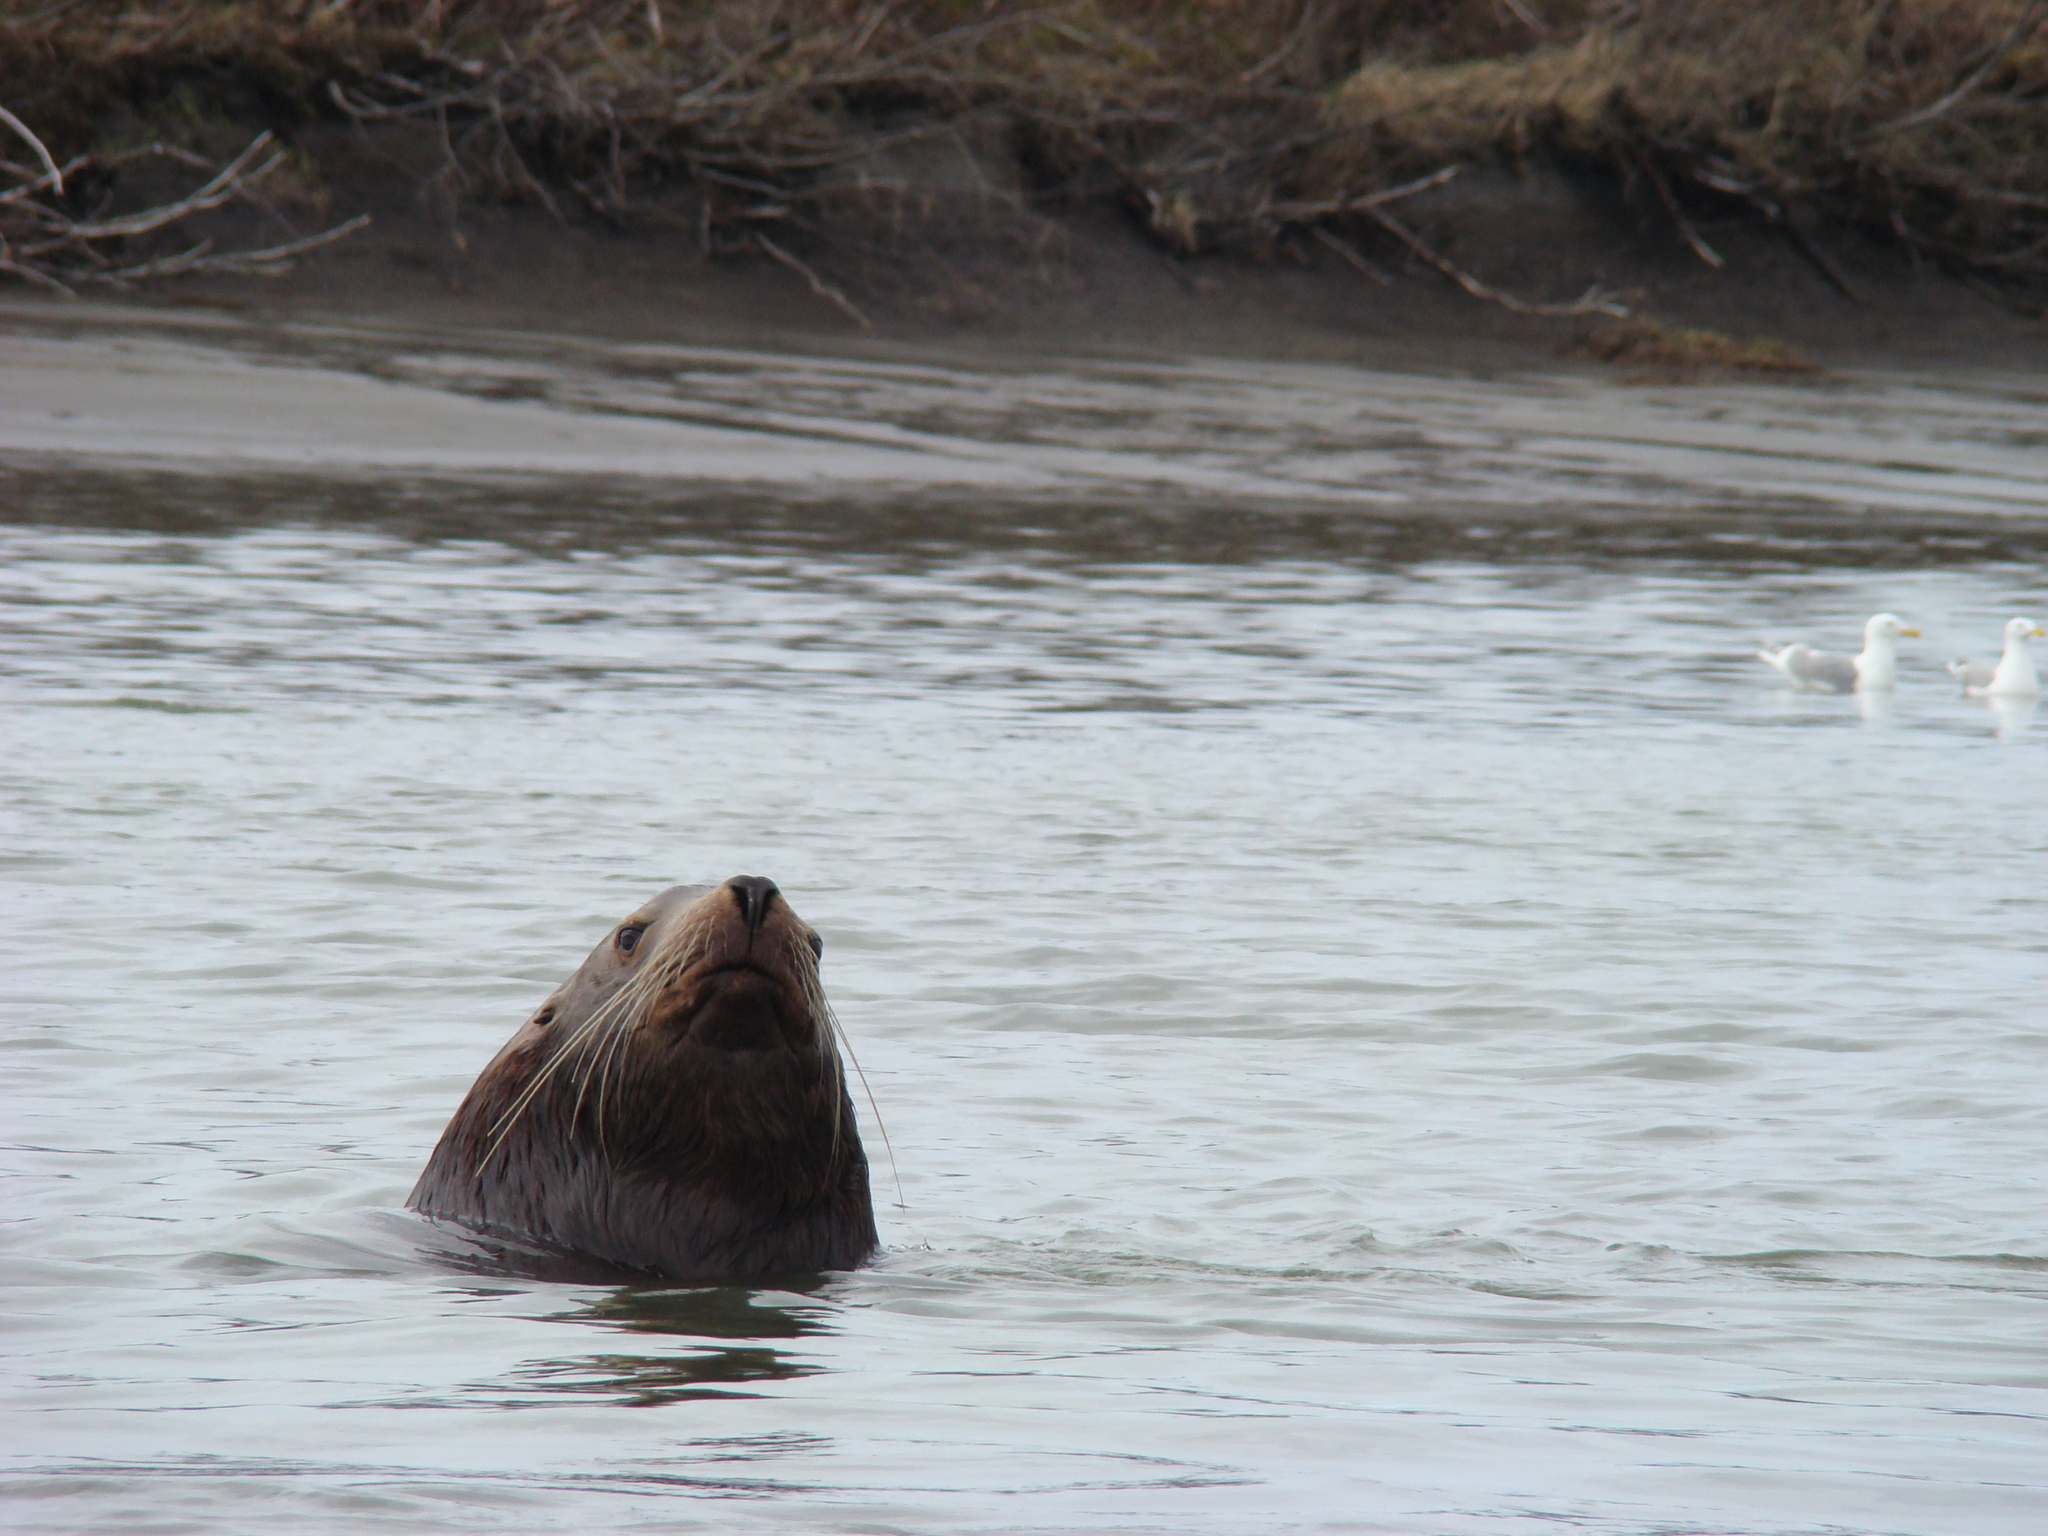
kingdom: Animalia
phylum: Chordata
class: Mammalia
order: Carnivora
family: Otariidae
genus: Eumetopias
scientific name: Eumetopias jubatus
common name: Steller sea lion
